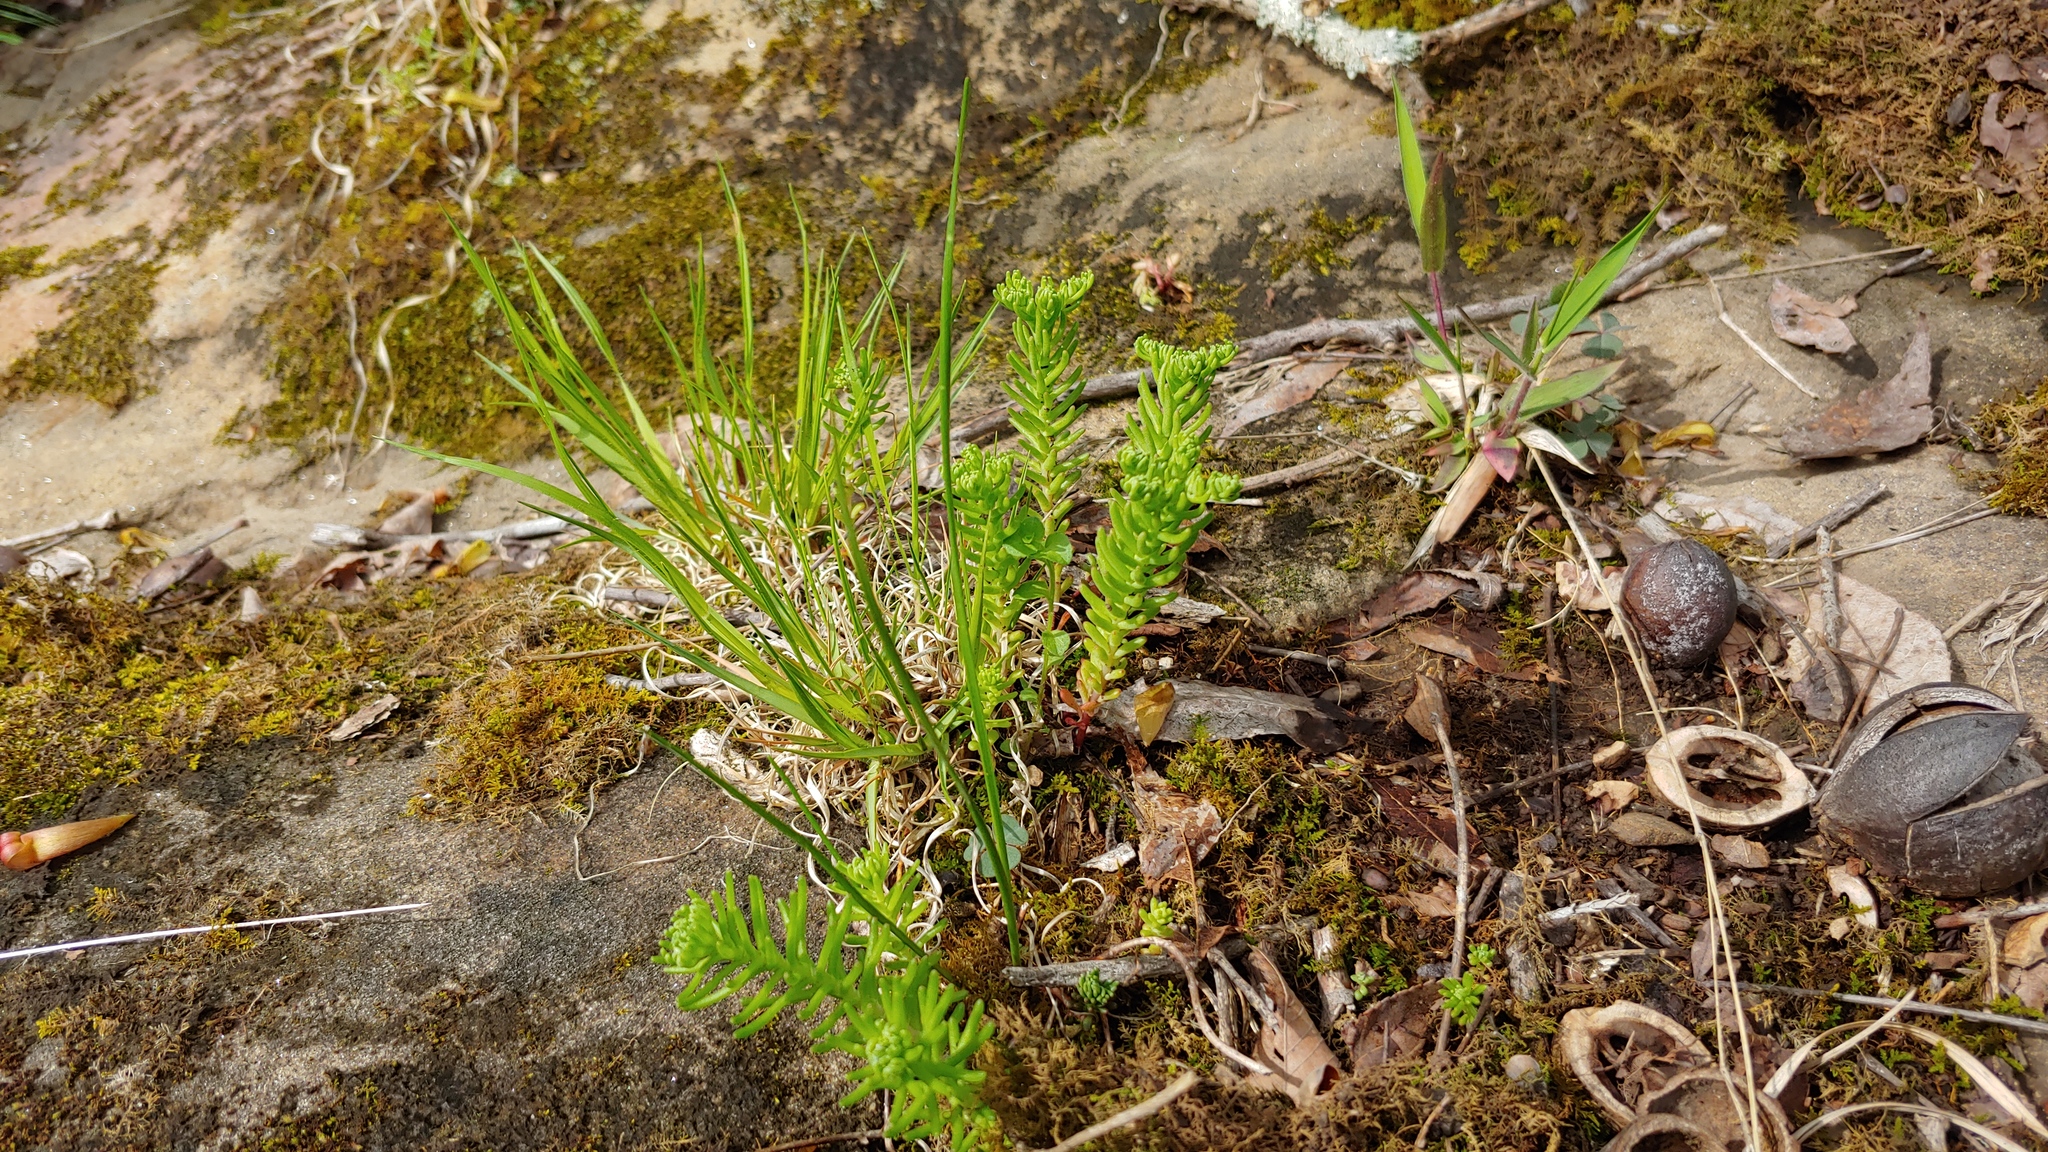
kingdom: Plantae
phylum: Tracheophyta
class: Magnoliopsida
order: Saxifragales
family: Crassulaceae
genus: Sedum
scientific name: Sedum pulchellum
